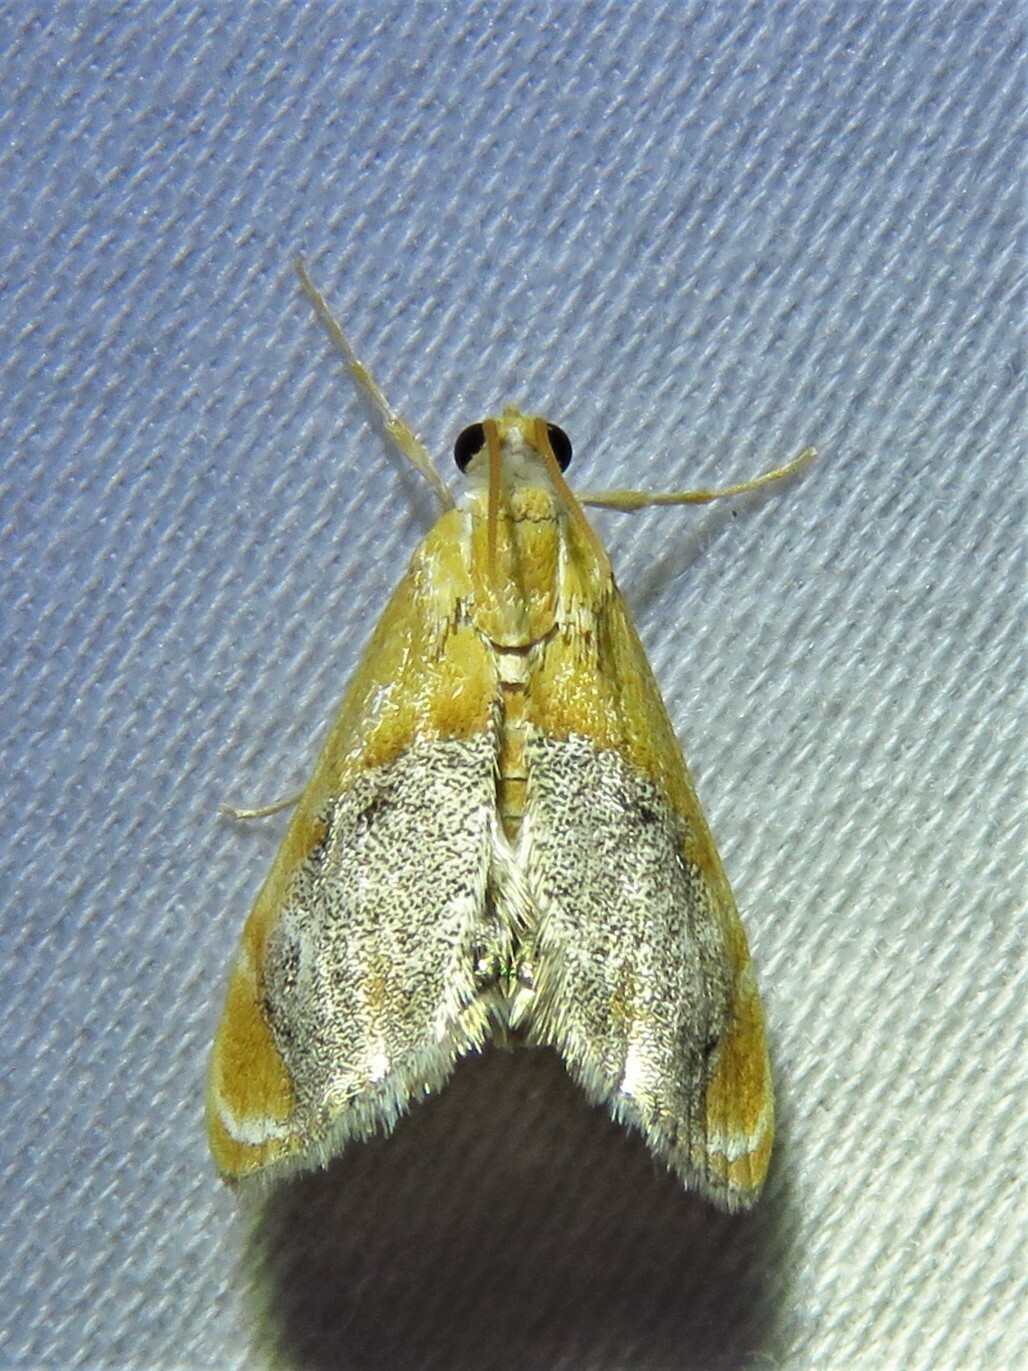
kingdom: Animalia
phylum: Arthropoda
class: Insecta
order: Lepidoptera
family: Crambidae
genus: Chalcoela
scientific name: Chalcoela iphitalis
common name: Sooty-winged chalcoela moth
